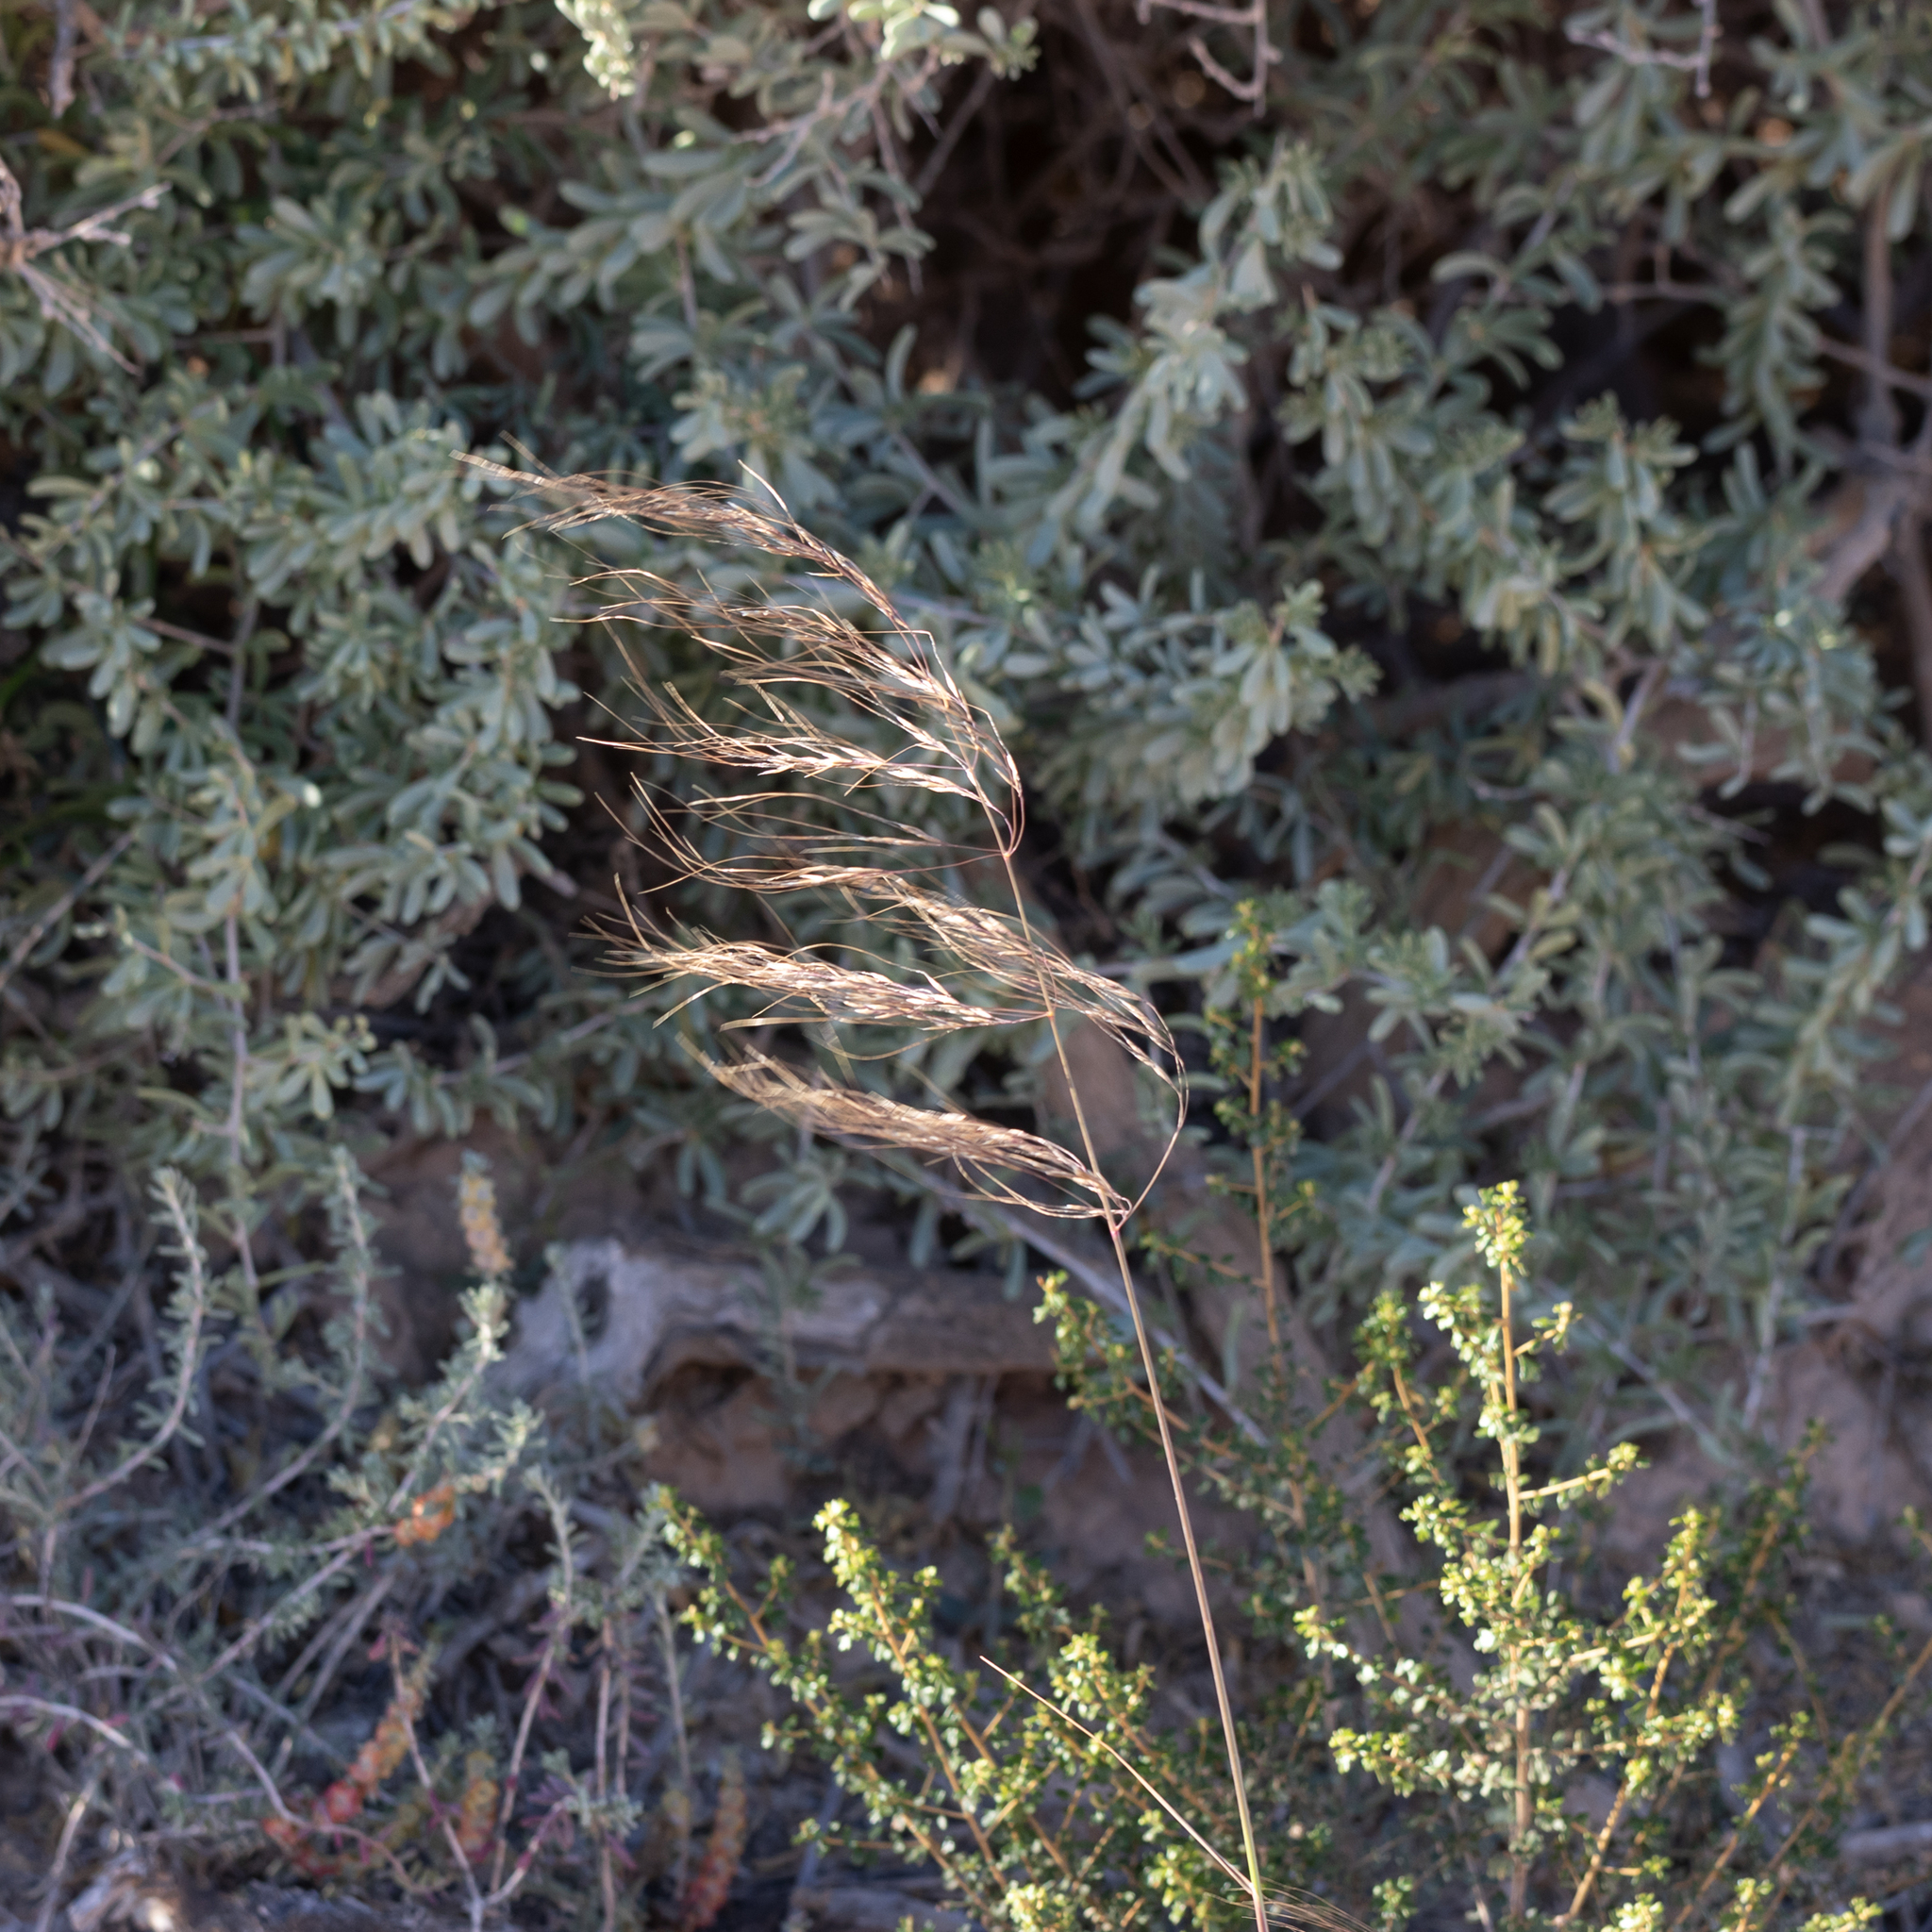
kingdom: Plantae
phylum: Tracheophyta
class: Liliopsida
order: Poales
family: Poaceae
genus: Austrostipa
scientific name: Austrostipa acrociliata
